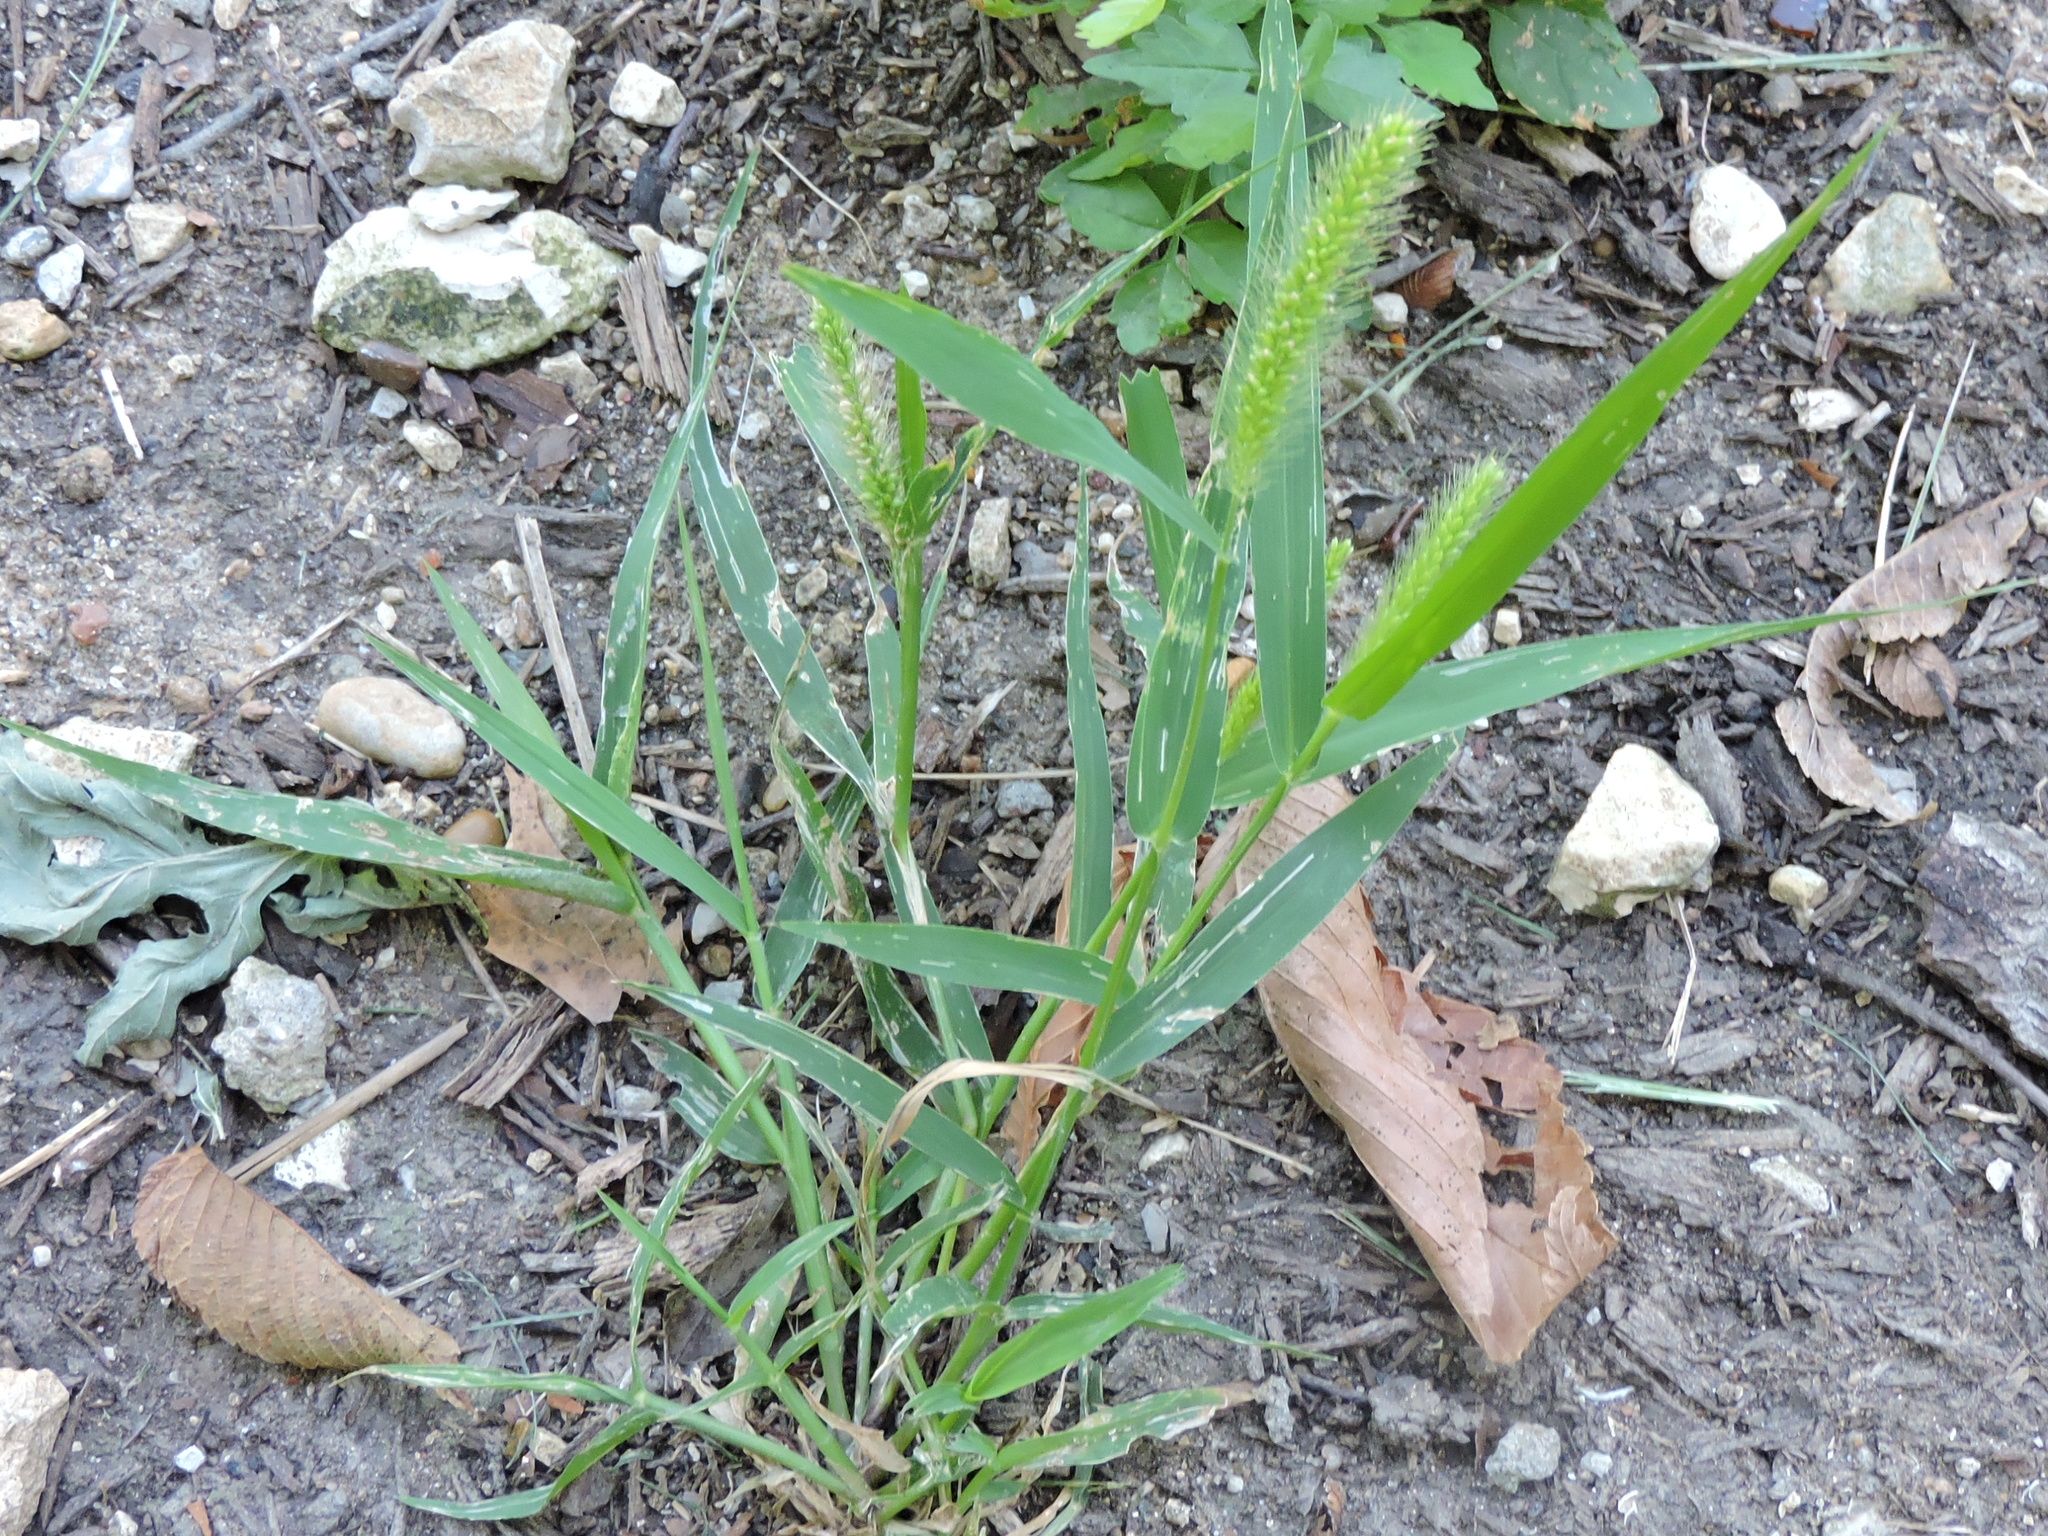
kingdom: Plantae
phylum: Tracheophyta
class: Liliopsida
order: Poales
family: Poaceae
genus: Setaria
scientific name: Setaria viridis
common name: Green bristlegrass
